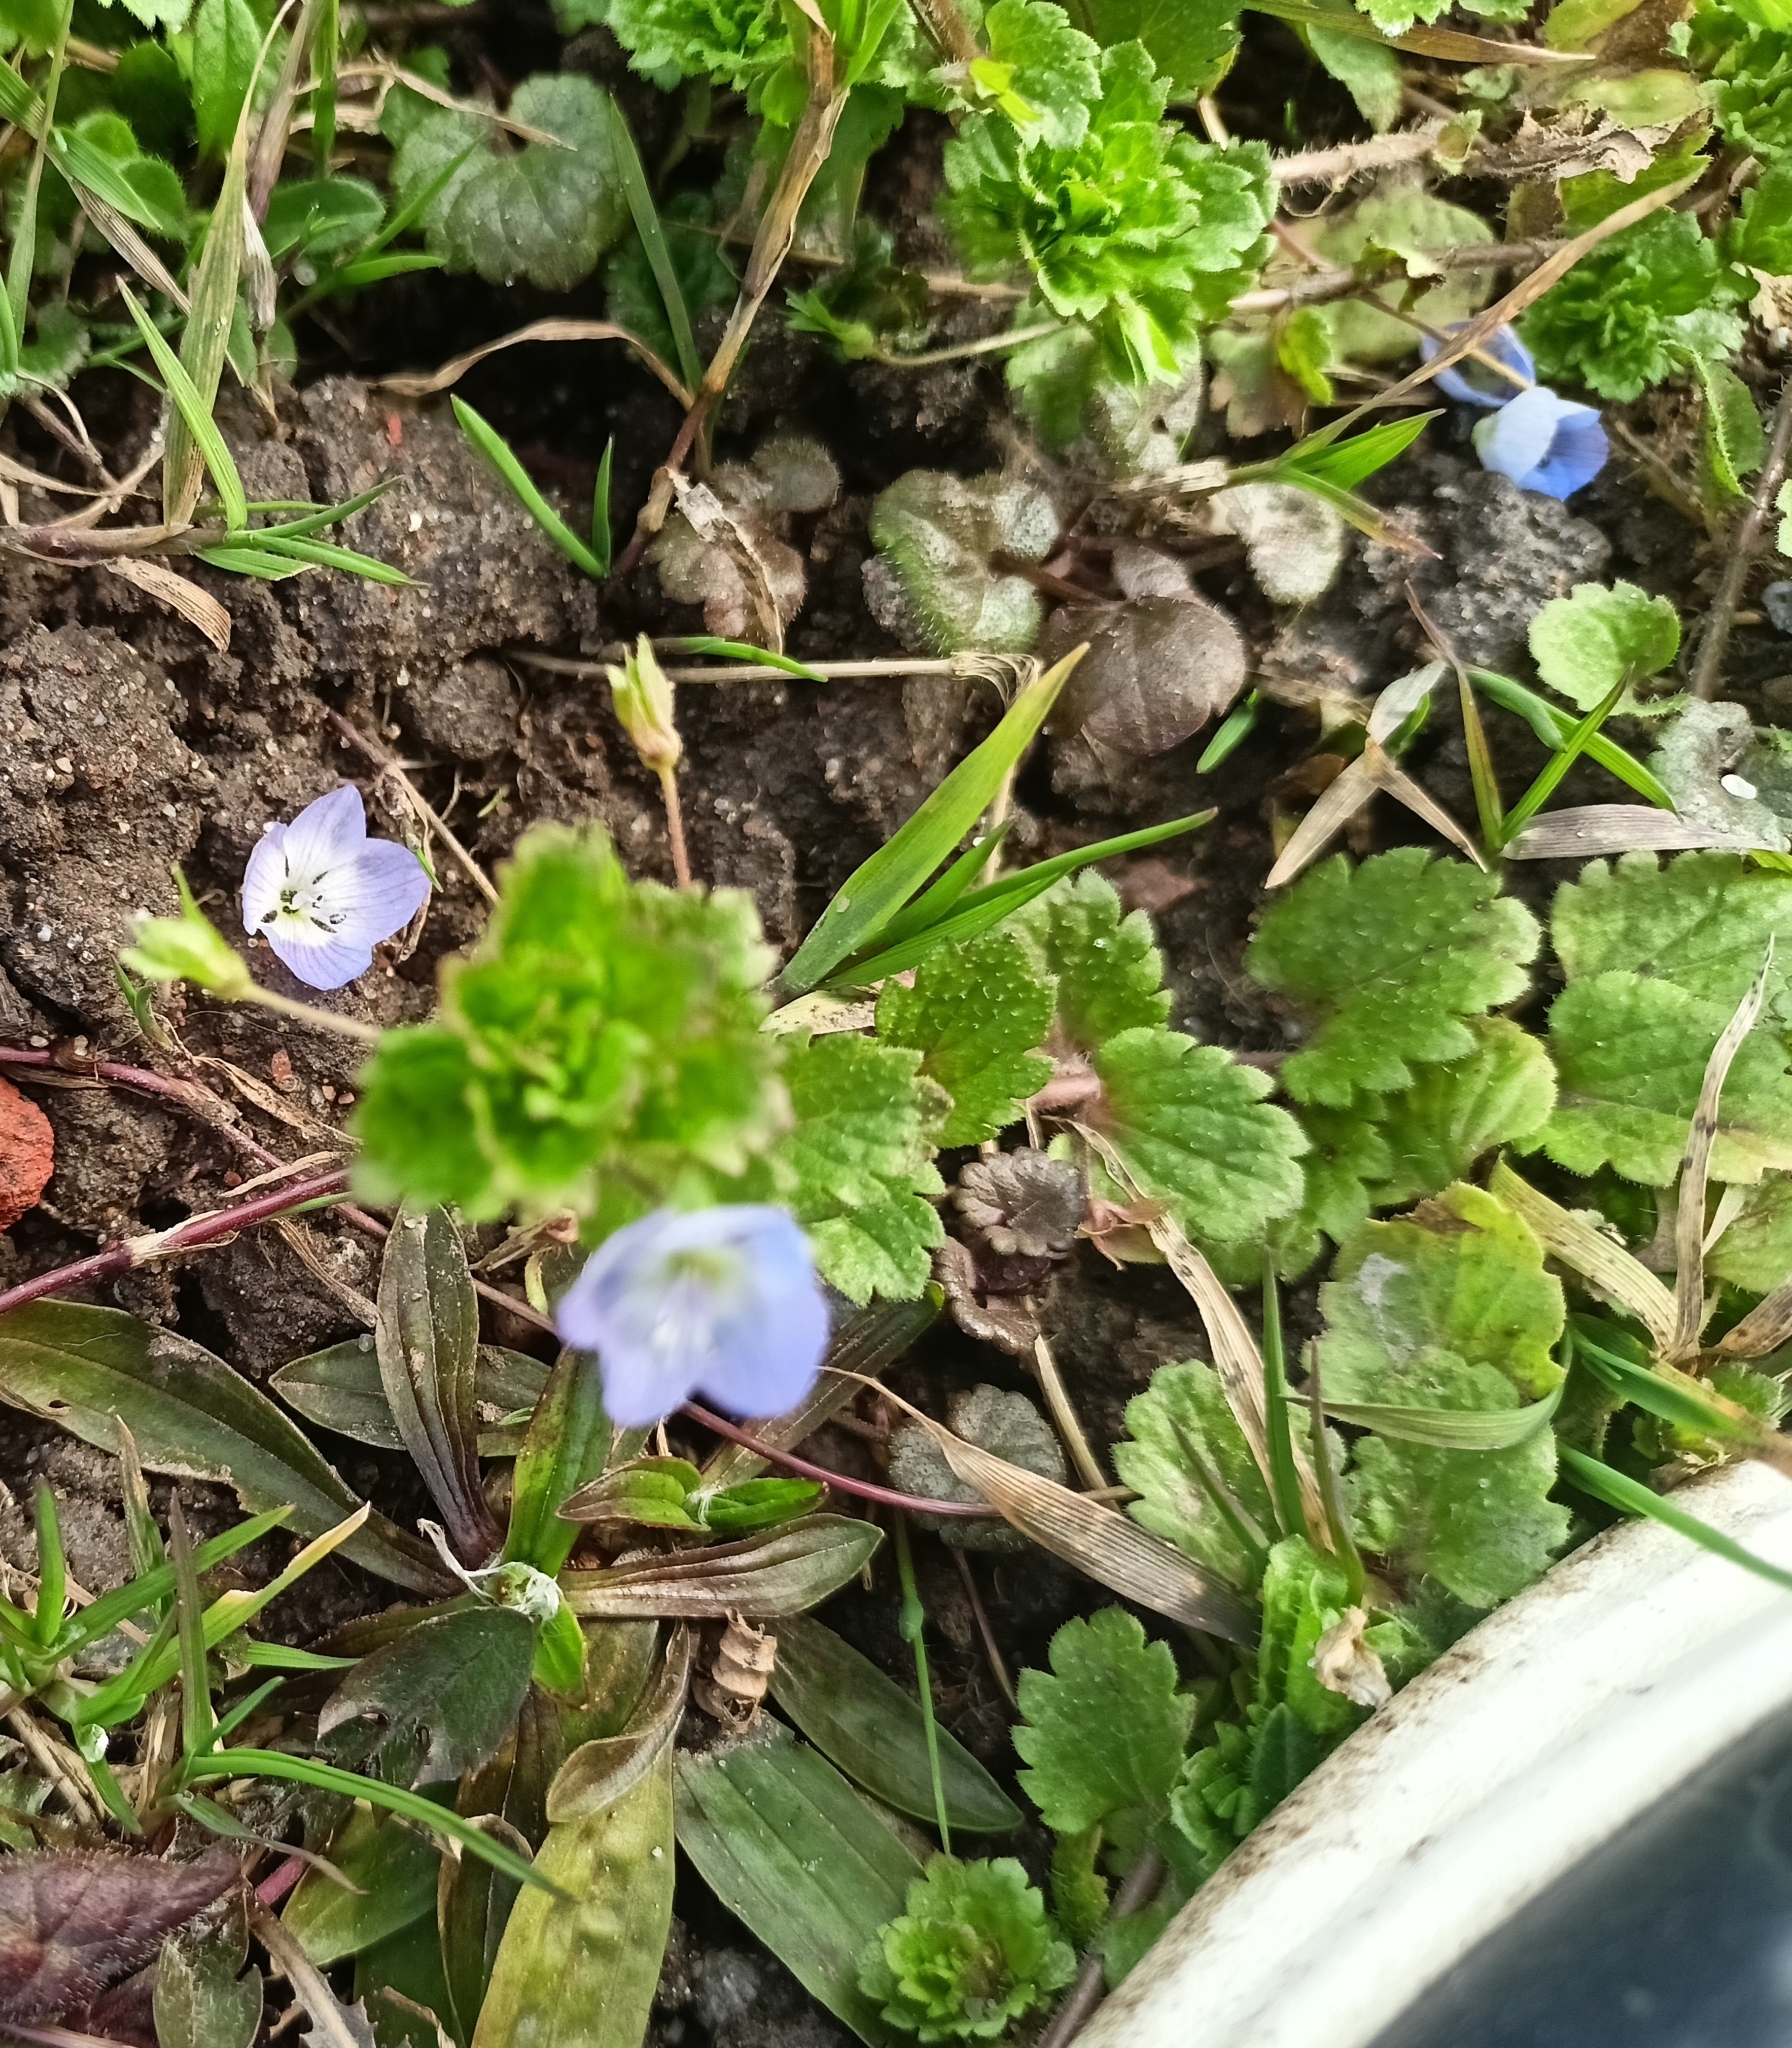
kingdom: Plantae
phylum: Tracheophyta
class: Magnoliopsida
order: Lamiales
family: Plantaginaceae
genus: Veronica
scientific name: Veronica persica
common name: Common field-speedwell
